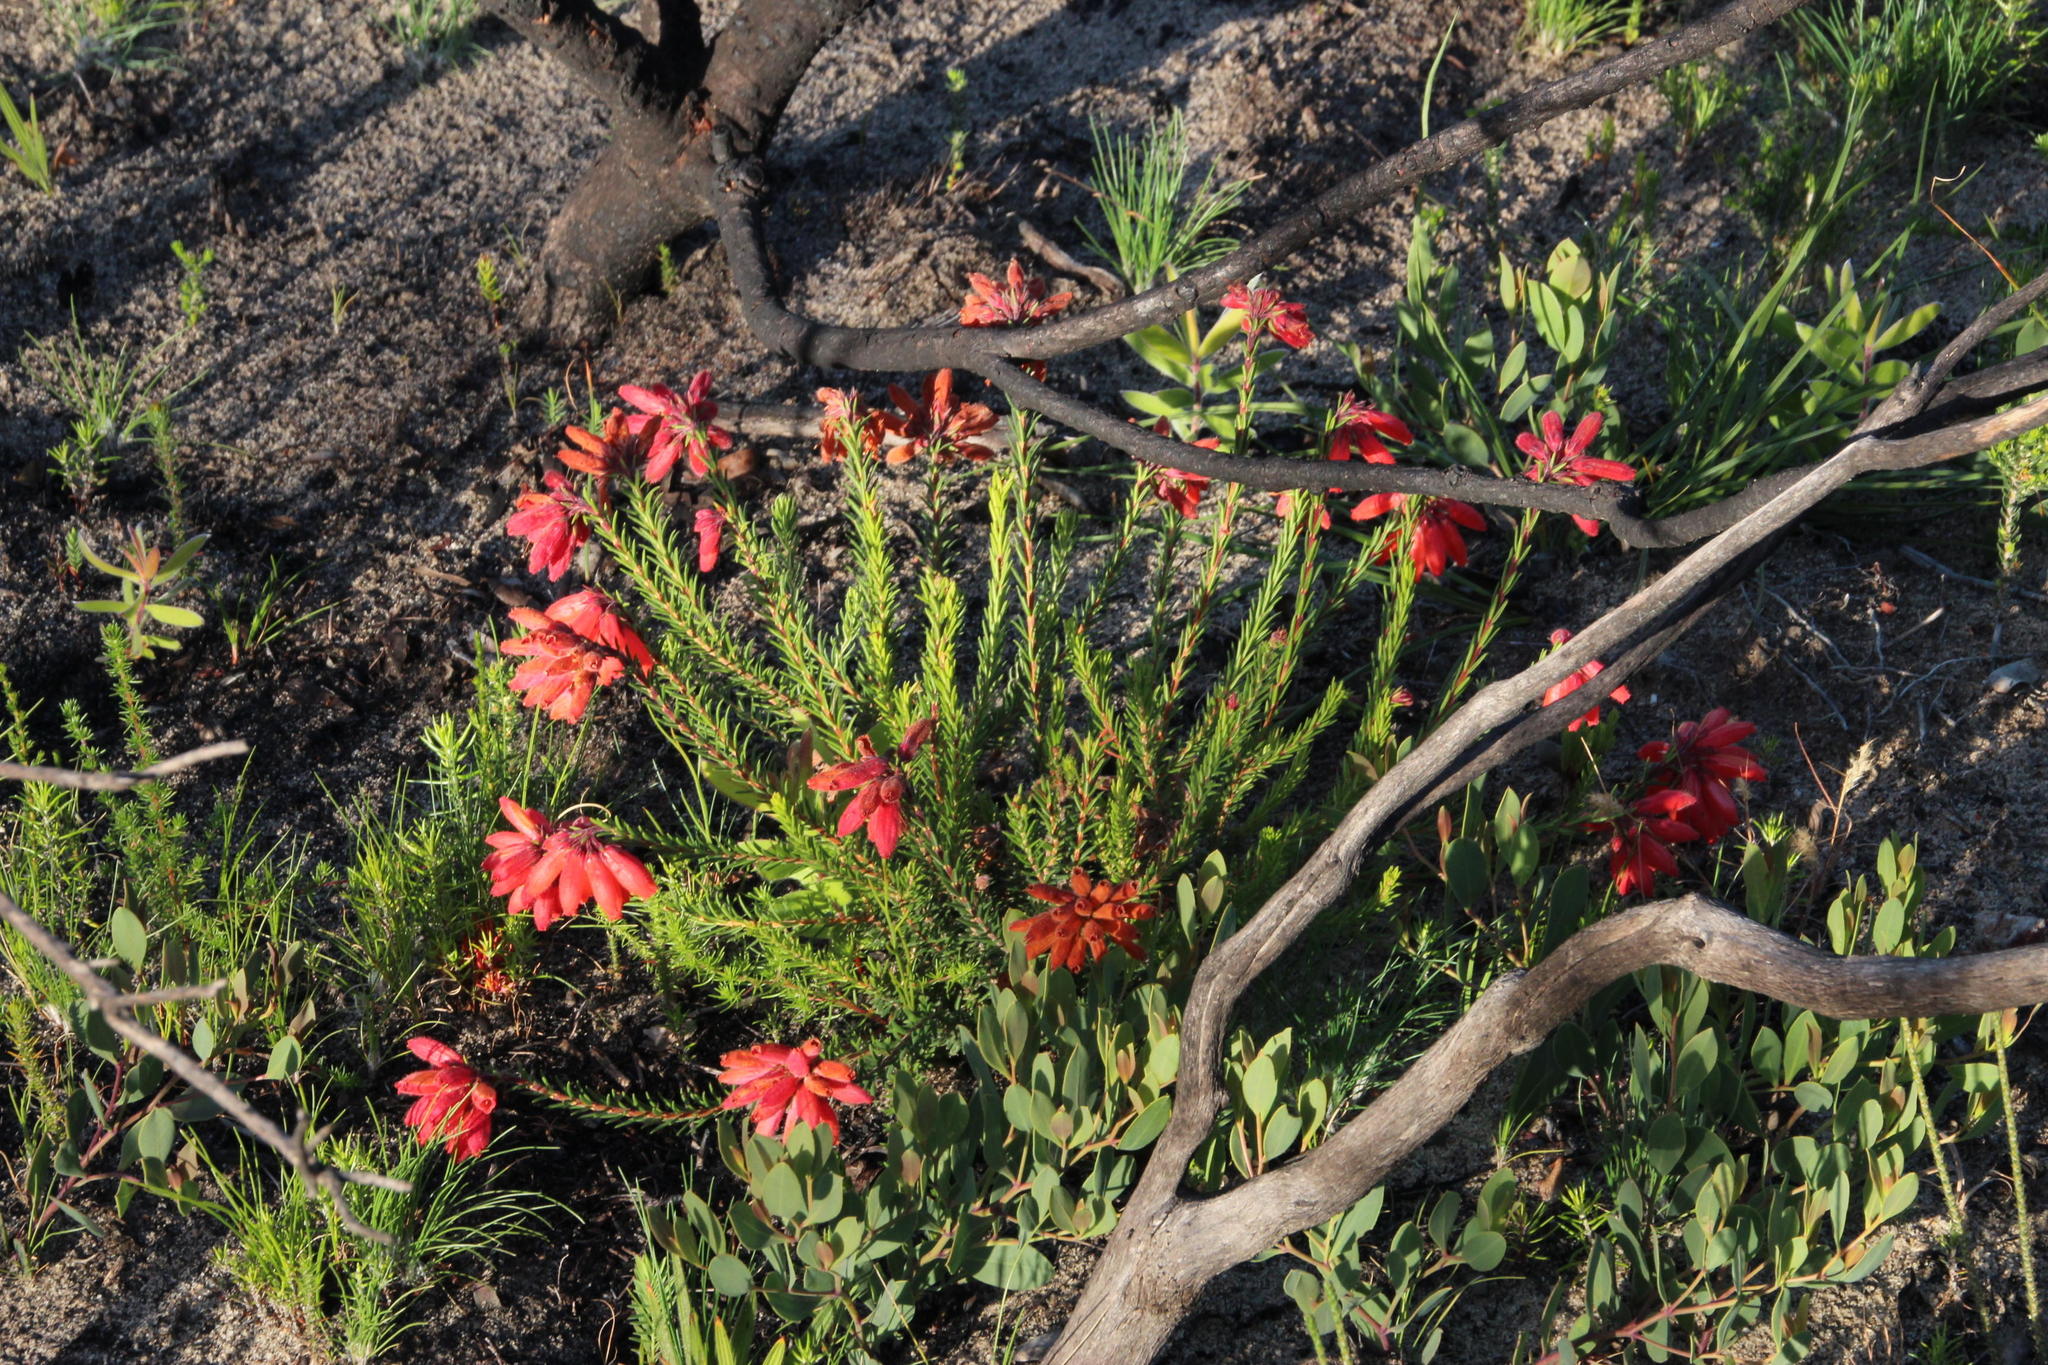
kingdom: Plantae
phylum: Tracheophyta
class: Magnoliopsida
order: Ericales
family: Ericaceae
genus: Erica
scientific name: Erica cerinthoides
